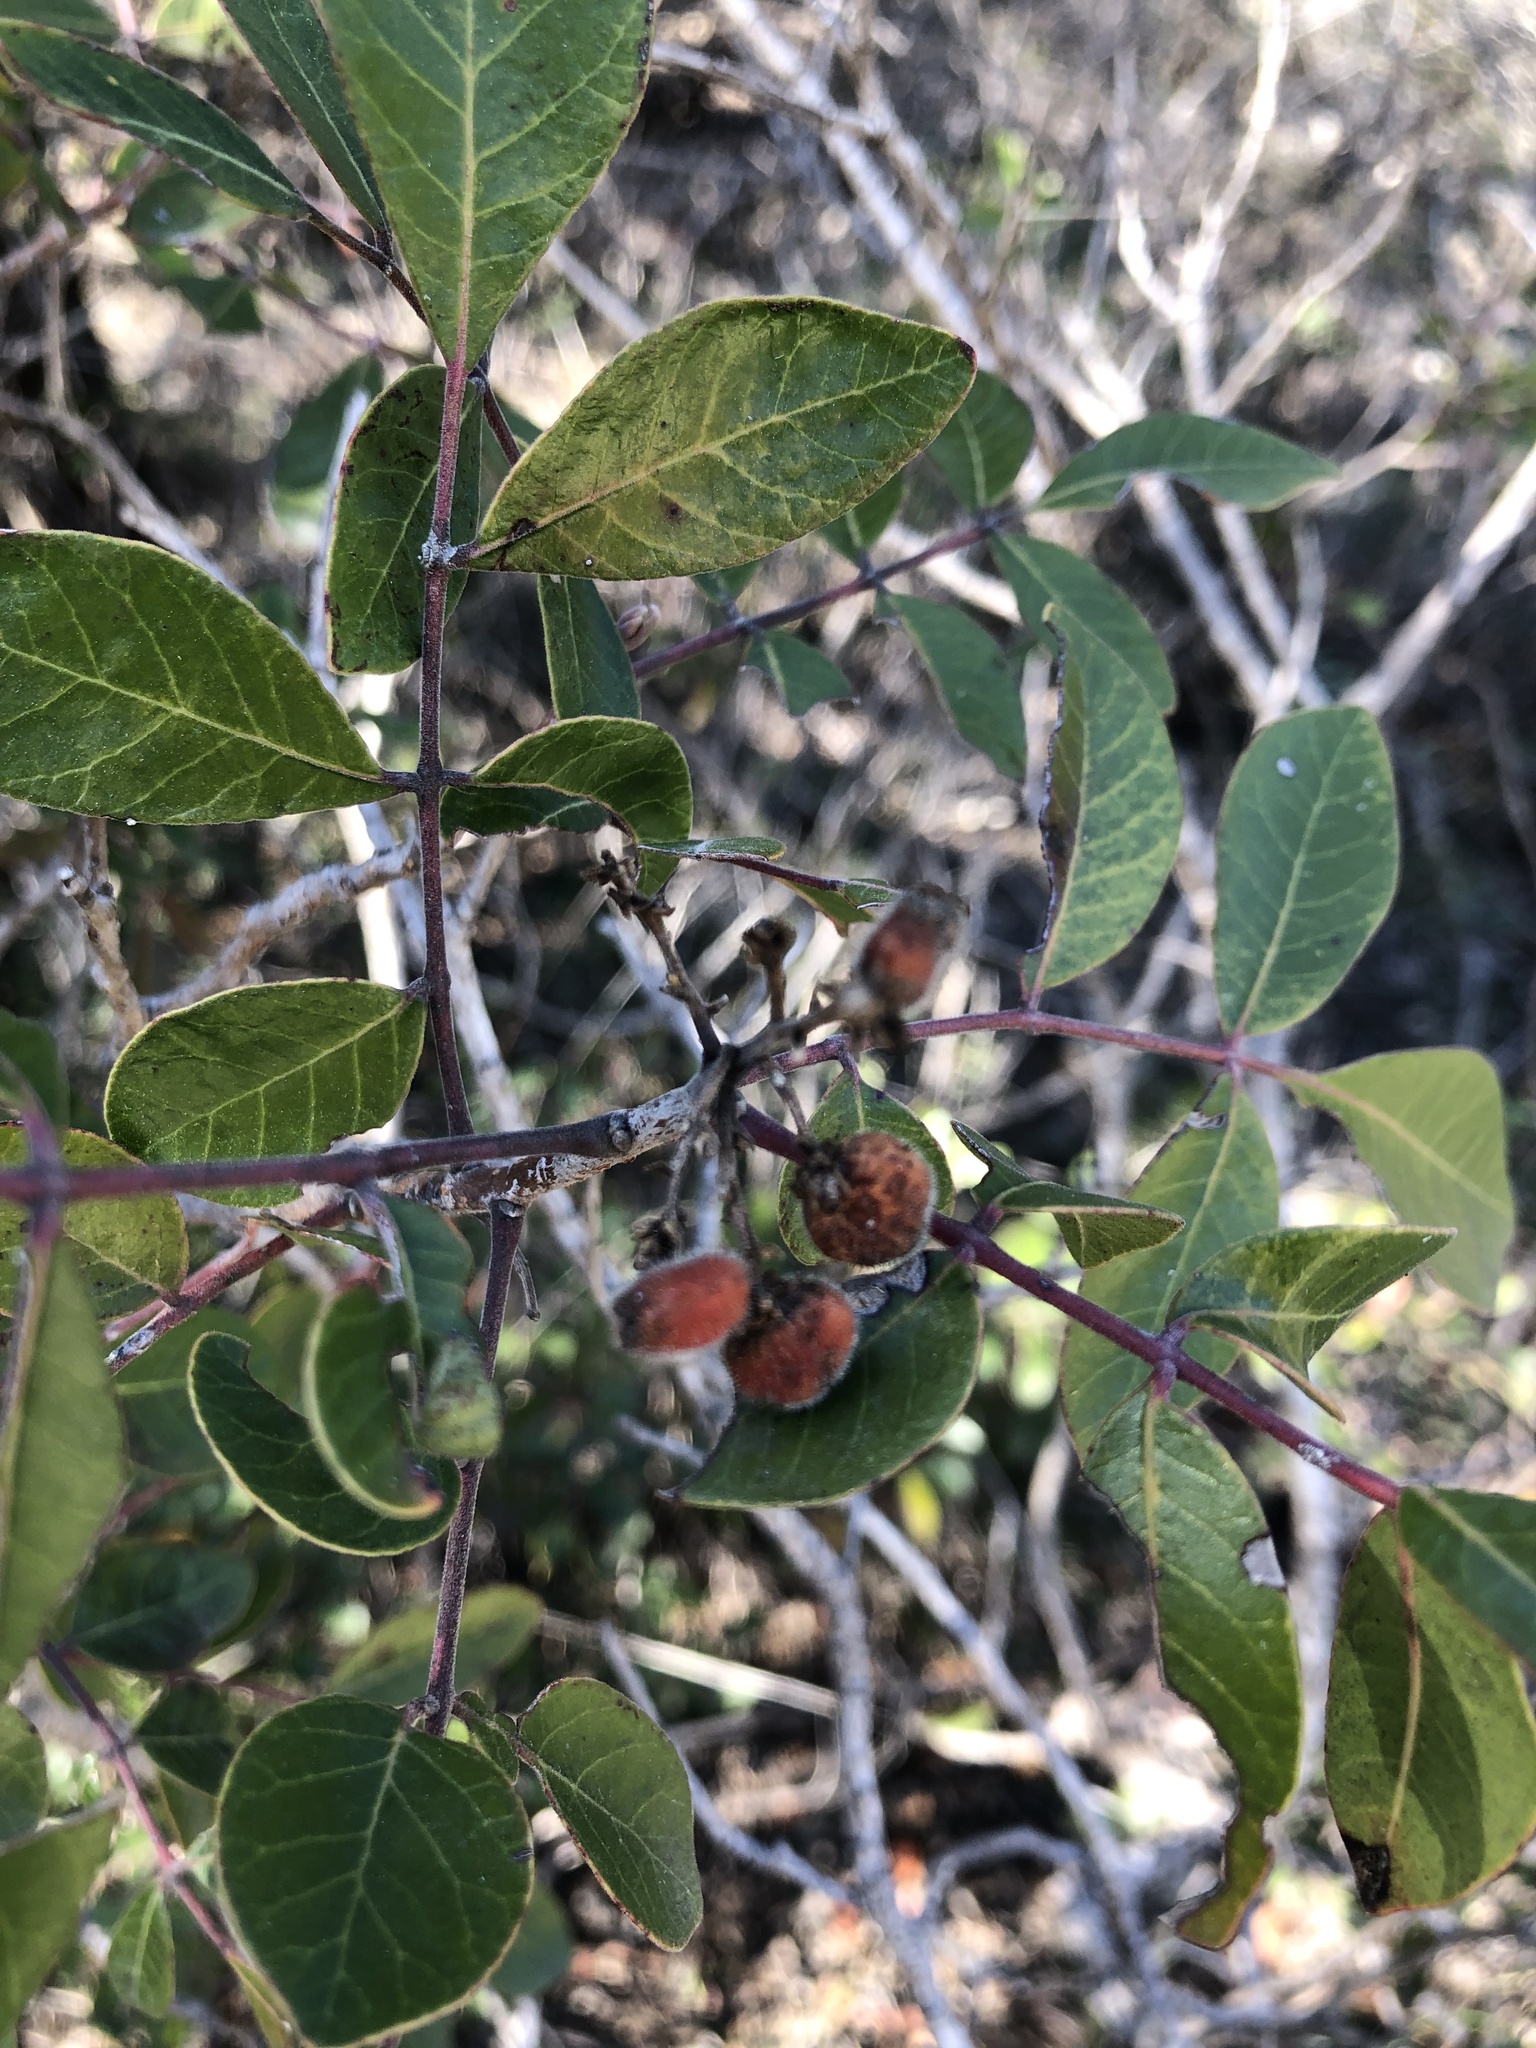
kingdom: Plantae
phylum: Tracheophyta
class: Magnoliopsida
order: Sapindales
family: Anacardiaceae
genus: Rhus
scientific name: Rhus virens
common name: Evergreen sumac
